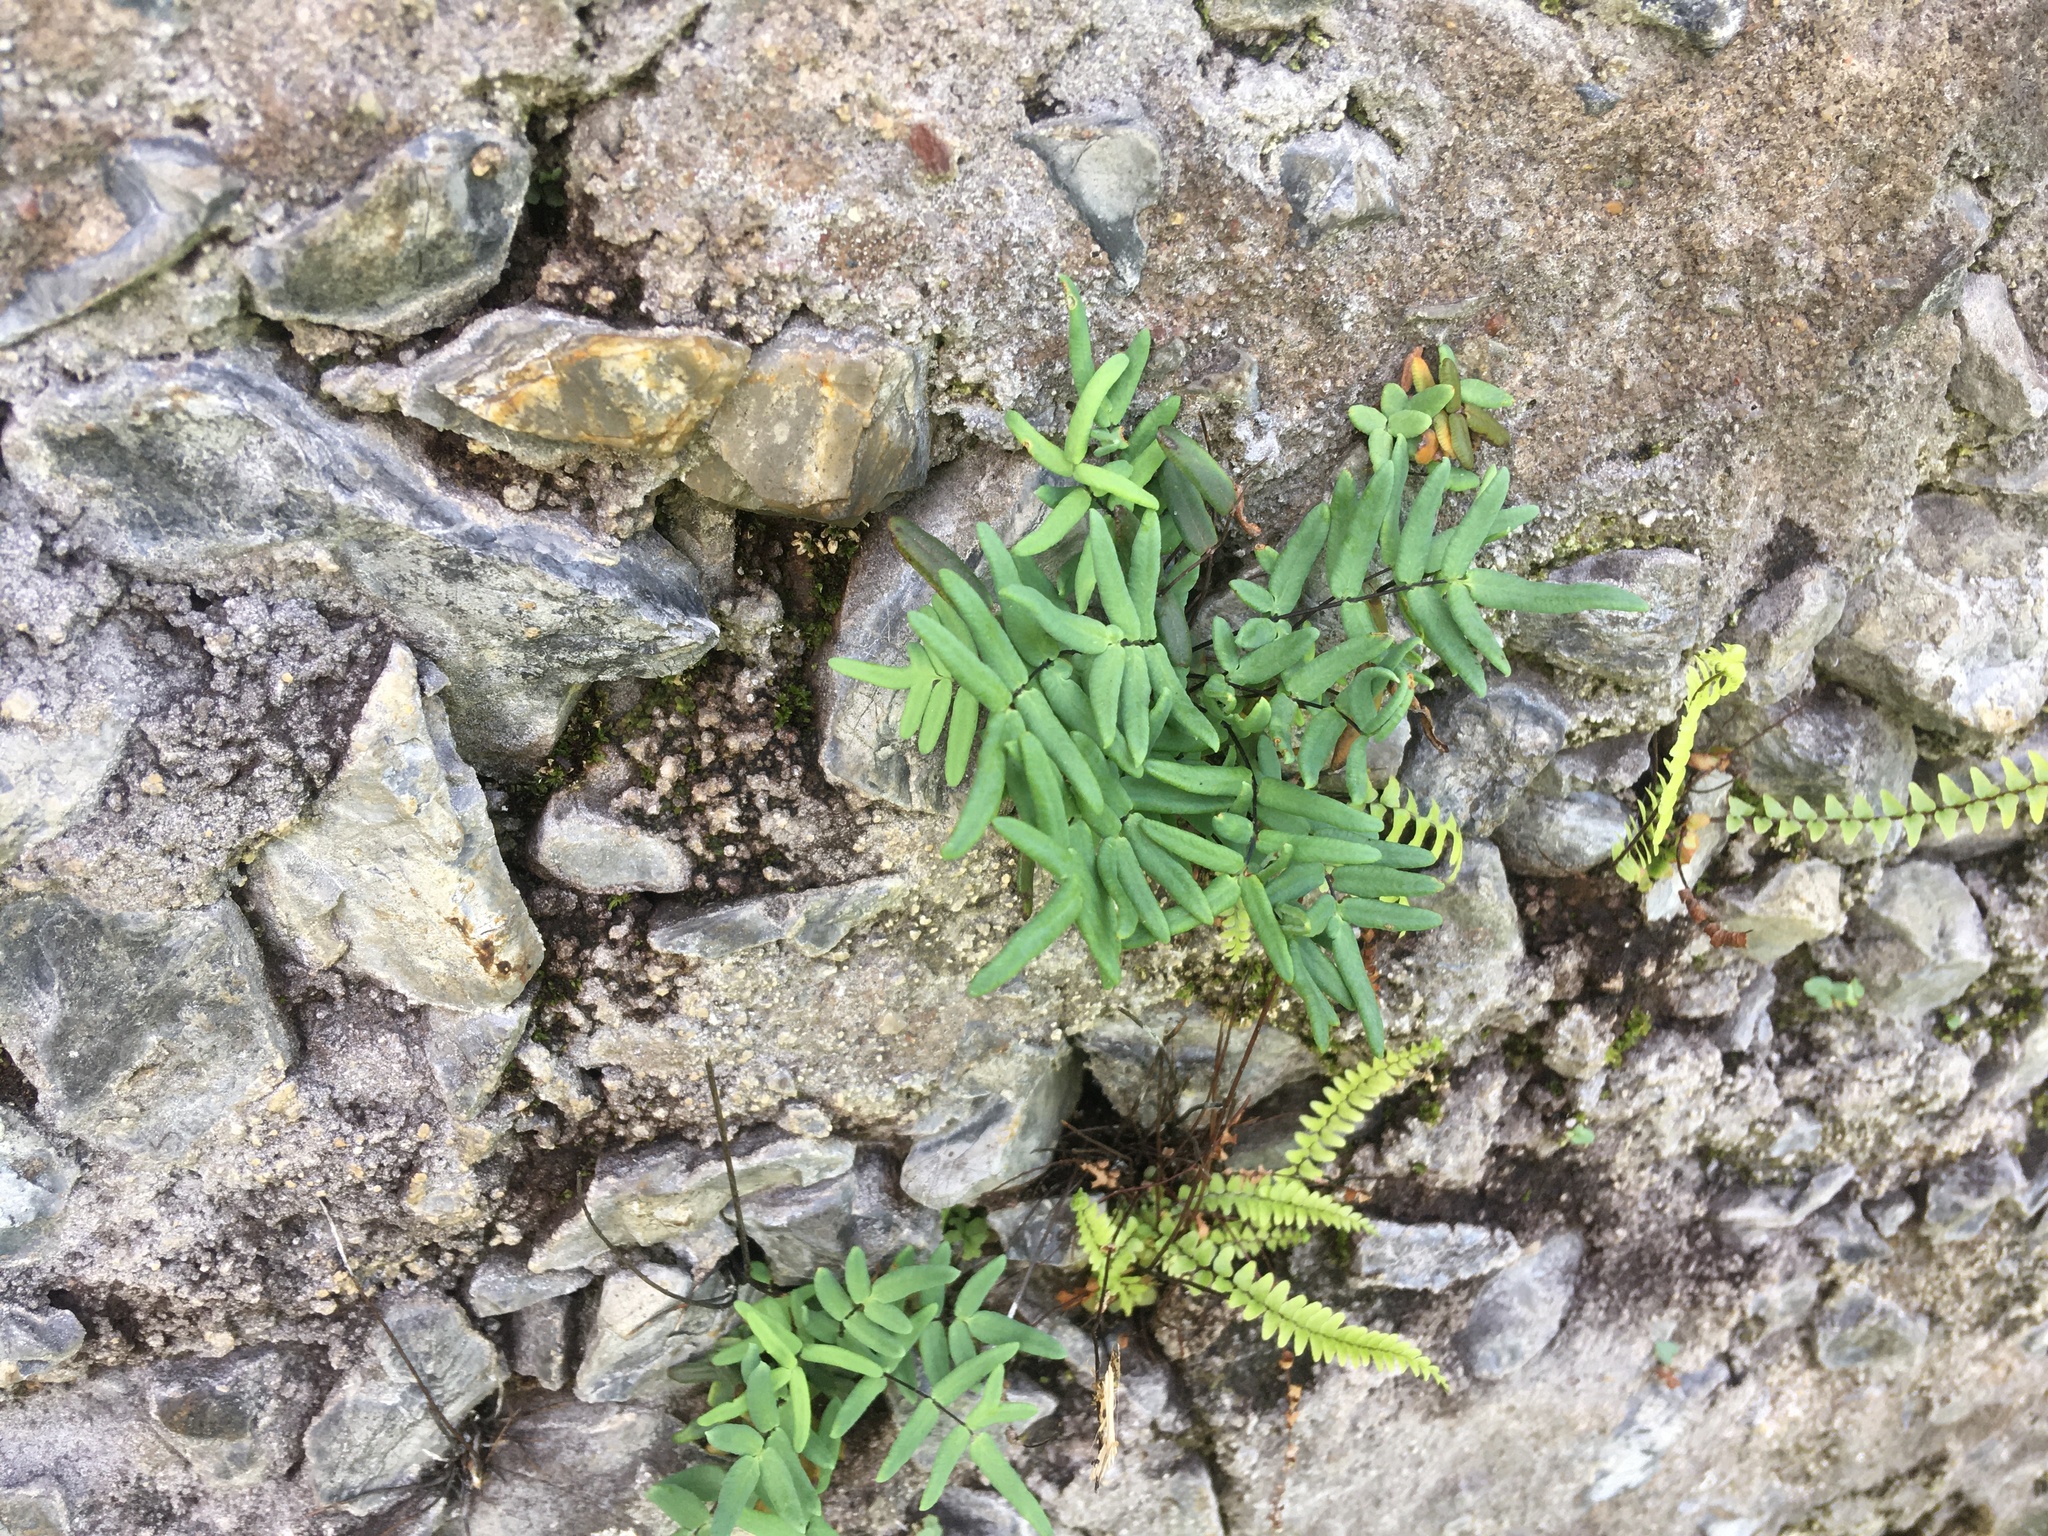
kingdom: Plantae
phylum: Tracheophyta
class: Polypodiopsida
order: Polypodiales
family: Pteridaceae
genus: Pellaea
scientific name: Pellaea glabella
